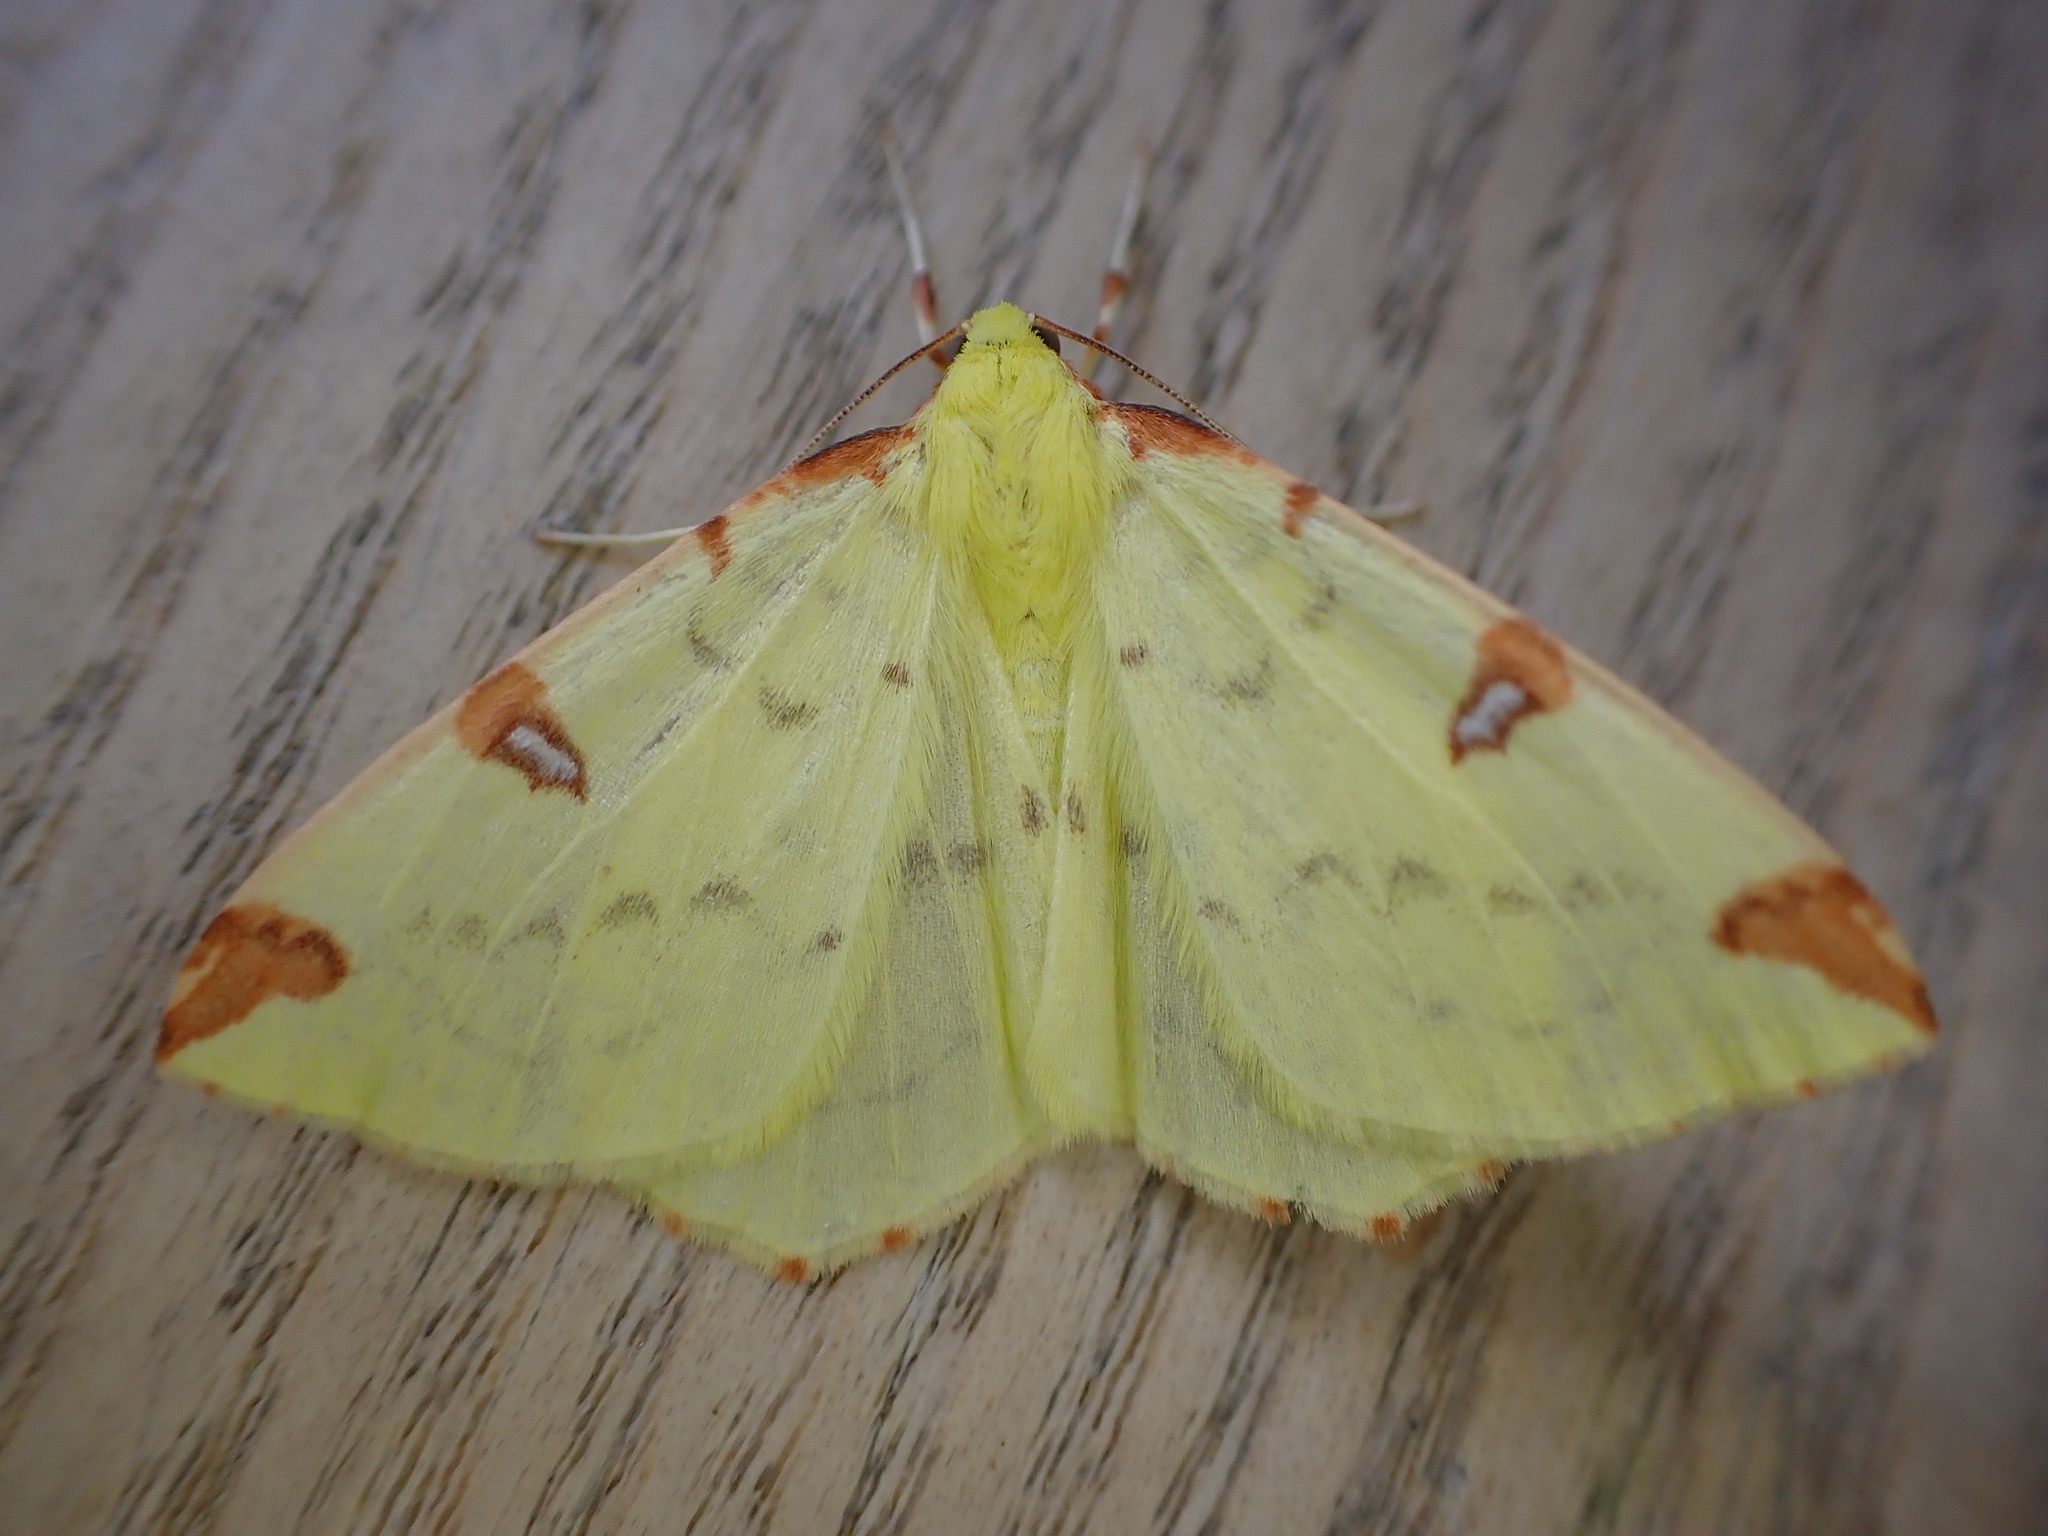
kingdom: Animalia
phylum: Arthropoda
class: Insecta
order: Lepidoptera
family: Geometridae
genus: Opisthograptis
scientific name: Opisthograptis luteolata
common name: Brimstone moth
